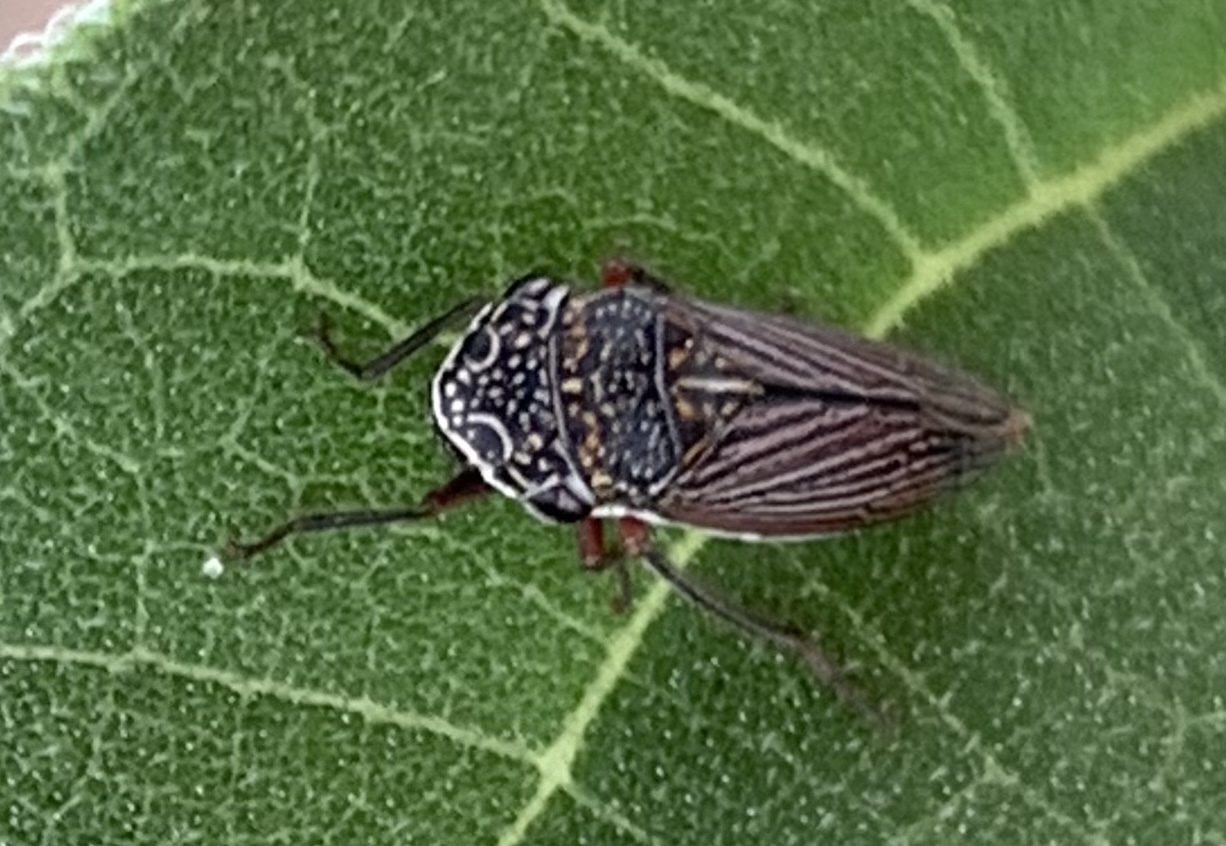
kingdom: Animalia
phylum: Arthropoda
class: Insecta
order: Hemiptera
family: Cicadellidae
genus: Cuerna
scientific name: Cuerna costalis
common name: Lateral-lined sharpshooter
